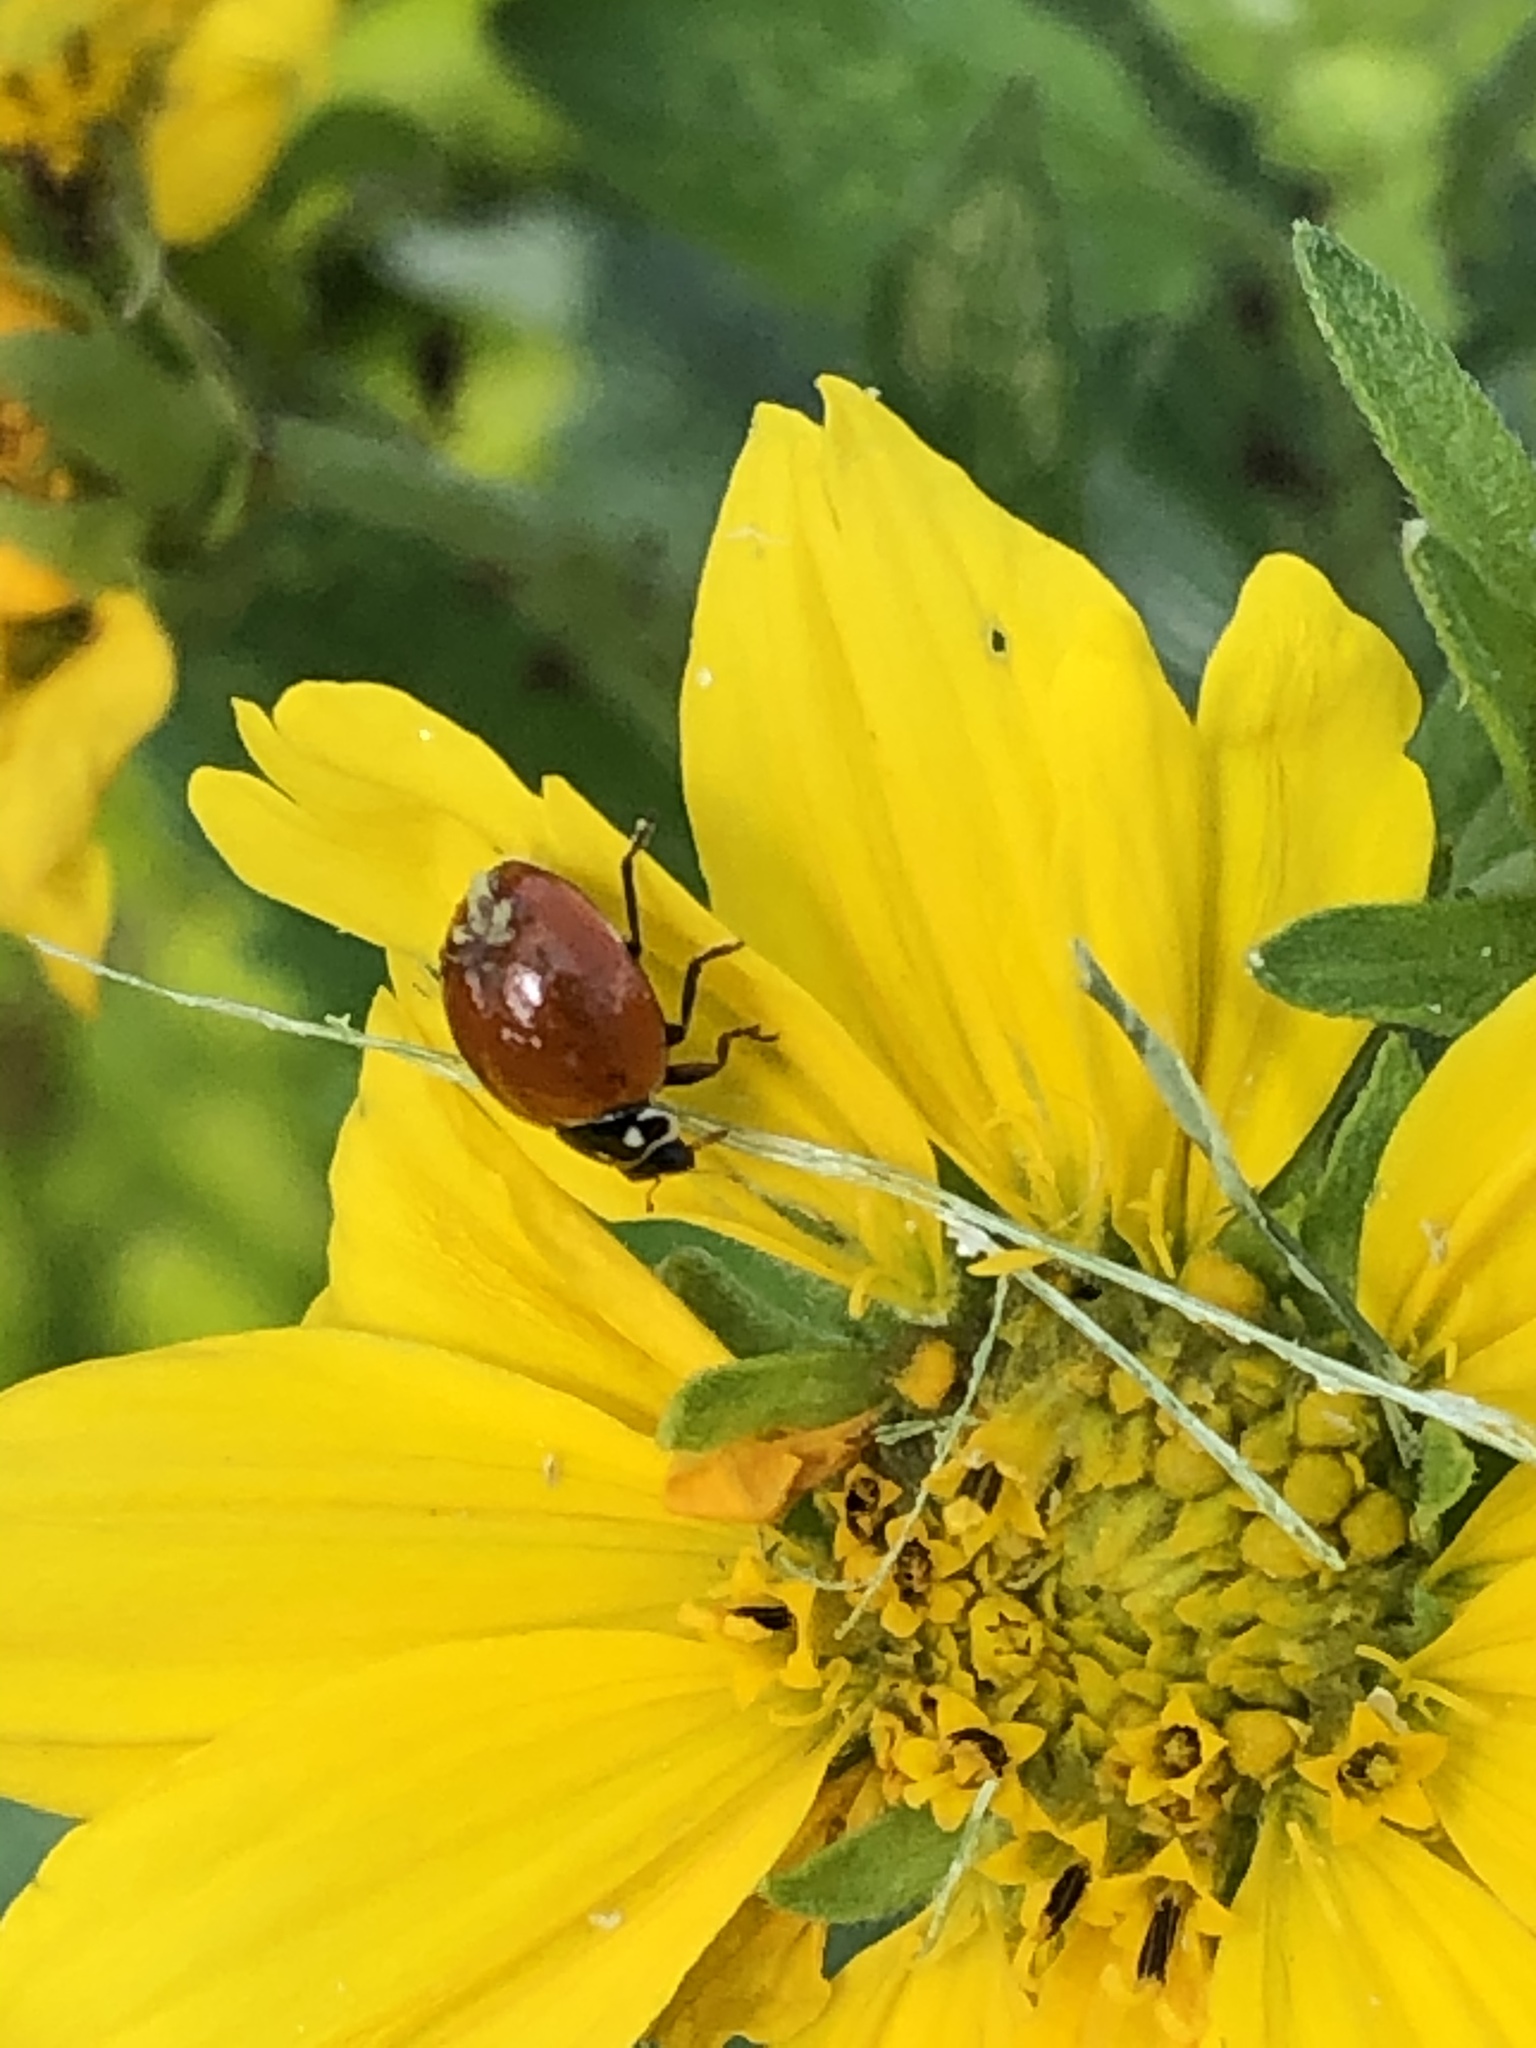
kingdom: Animalia
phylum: Arthropoda
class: Insecta
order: Coleoptera
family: Coccinellidae
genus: Cycloneda
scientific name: Cycloneda sanguinea
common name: Ladybird beetle
